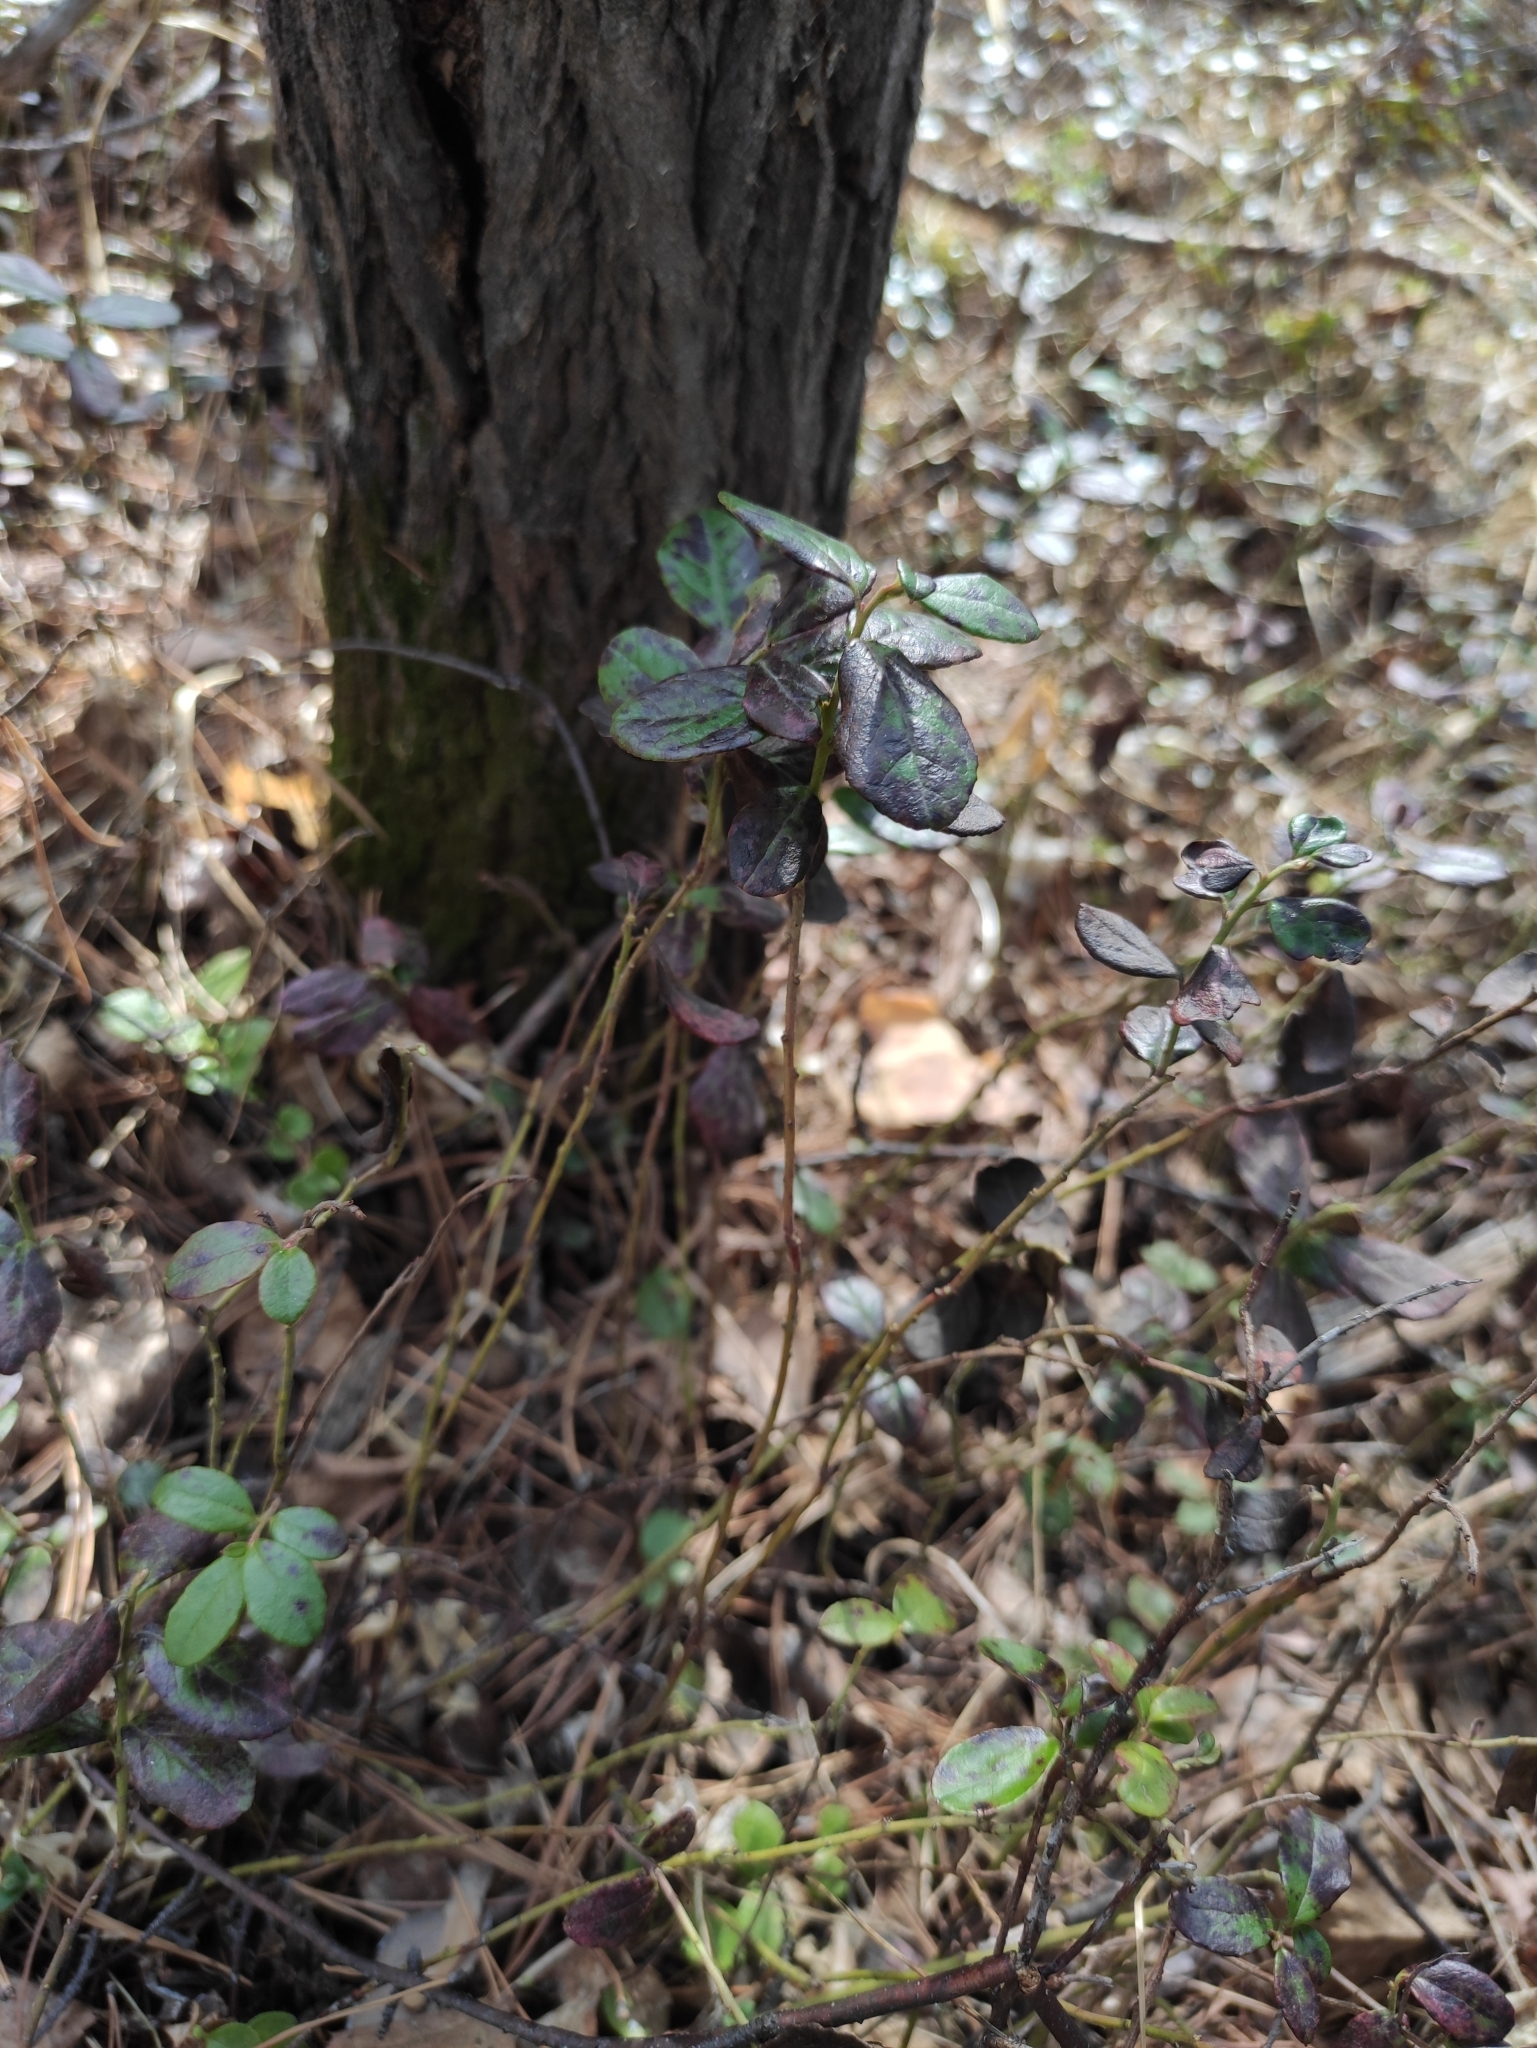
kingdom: Plantae
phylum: Tracheophyta
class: Magnoliopsida
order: Ericales
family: Ericaceae
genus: Vaccinium
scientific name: Vaccinium vitis-idaea
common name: Cowberry
